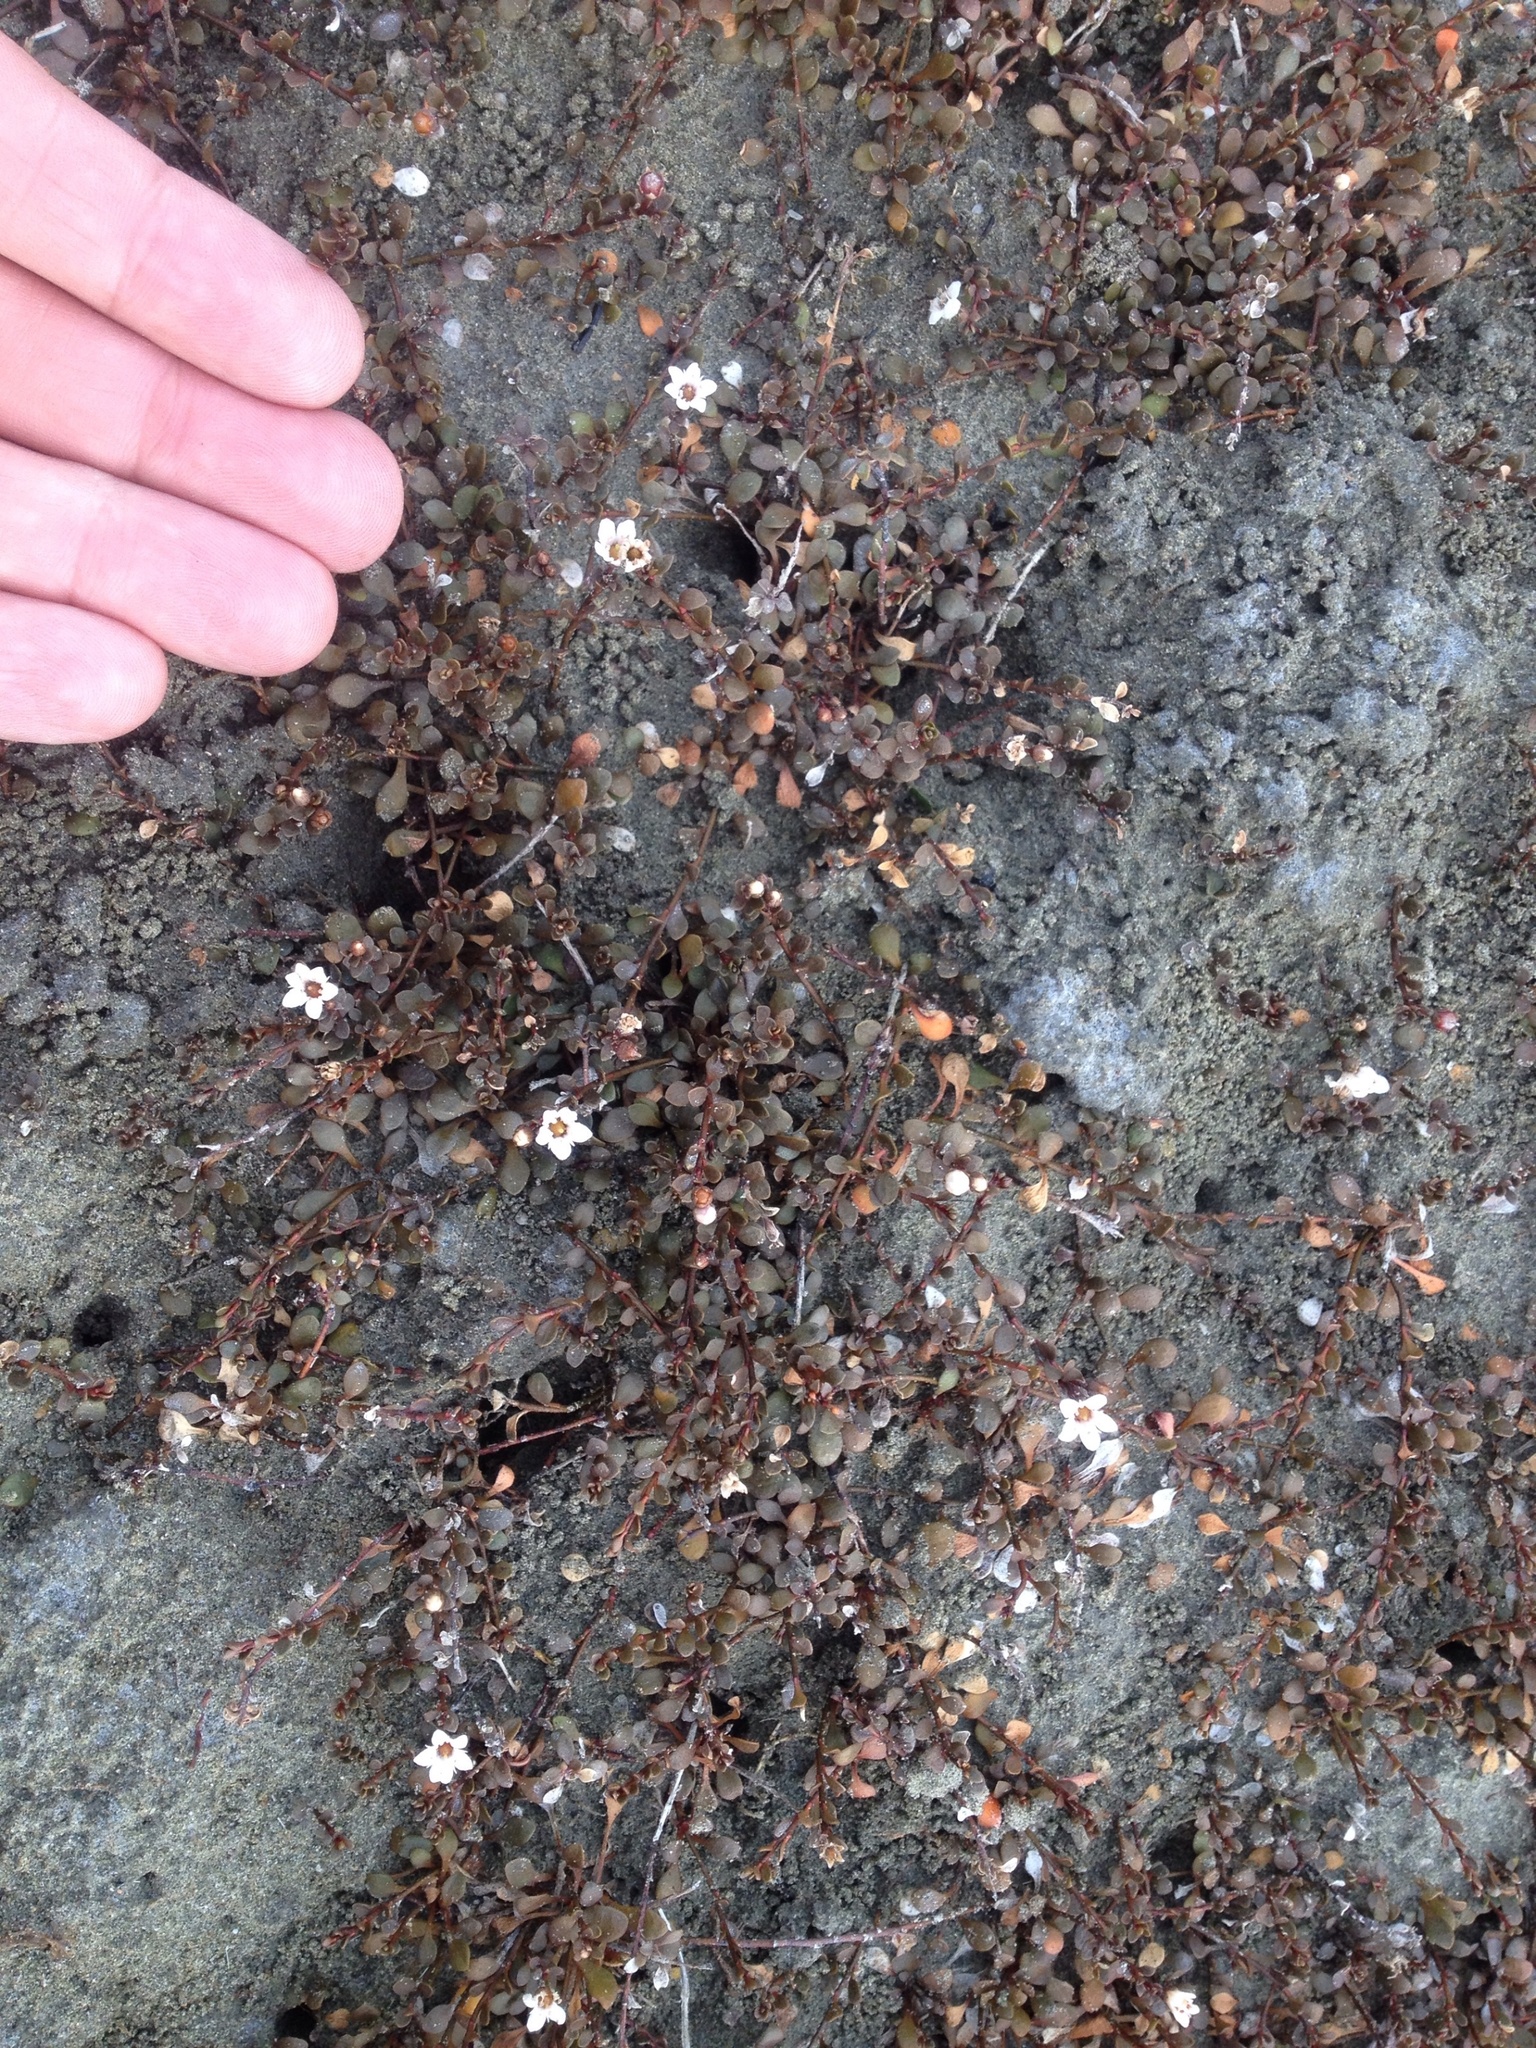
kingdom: Plantae
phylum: Tracheophyta
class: Magnoliopsida
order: Ericales
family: Primulaceae
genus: Samolus
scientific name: Samolus repens
